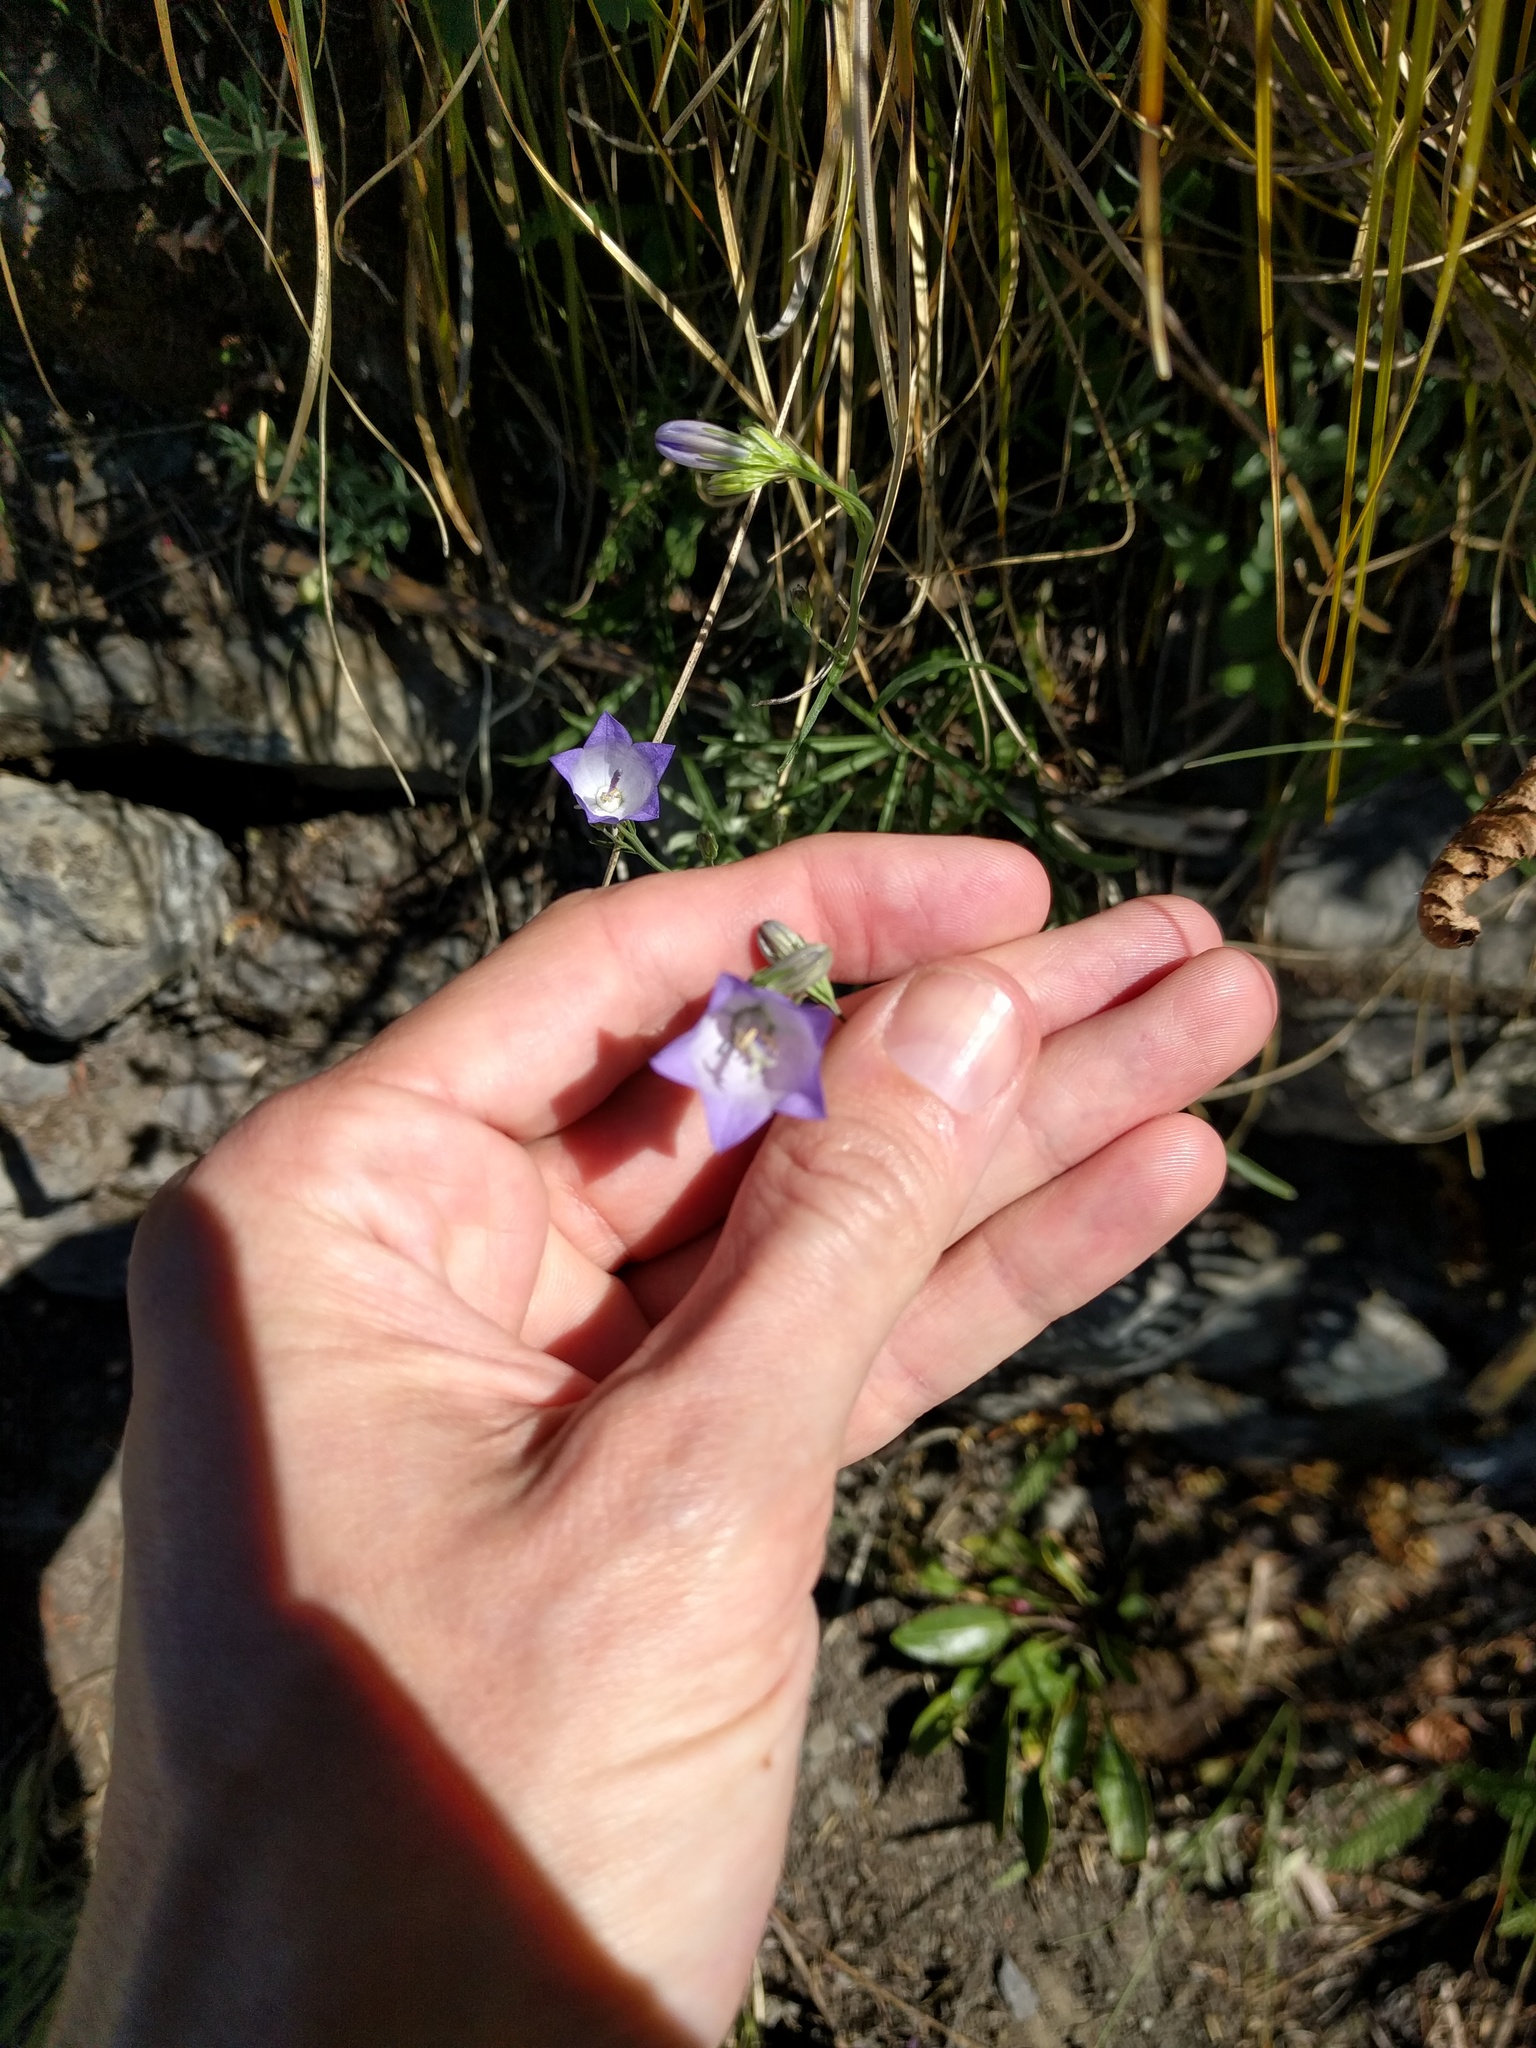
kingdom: Plantae
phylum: Tracheophyta
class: Magnoliopsida
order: Asterales
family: Campanulaceae
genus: Campanula
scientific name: Campanula petiolata
